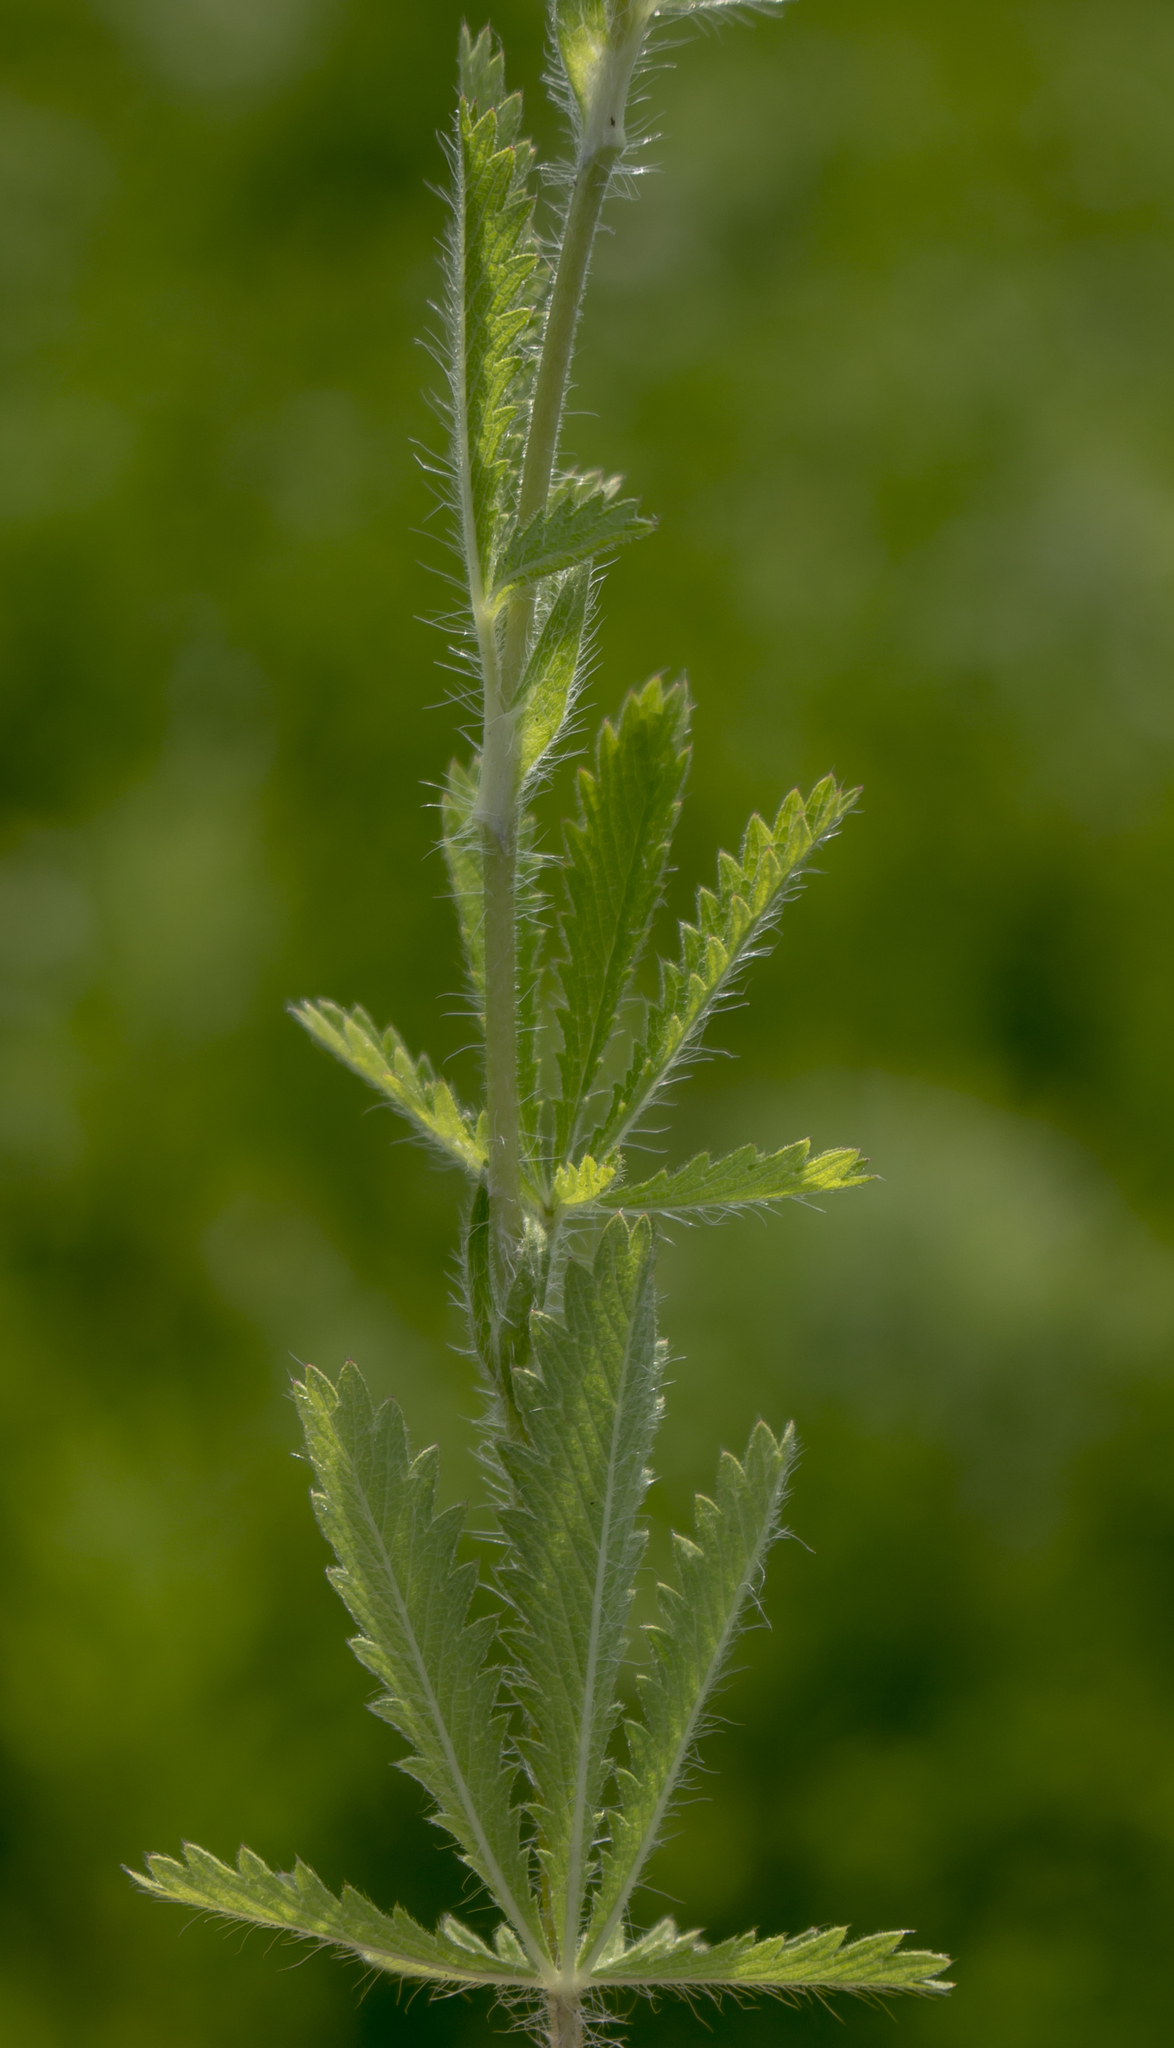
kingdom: Plantae
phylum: Tracheophyta
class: Magnoliopsida
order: Rosales
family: Rosaceae
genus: Potentilla
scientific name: Potentilla recta
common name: Sulphur cinquefoil
